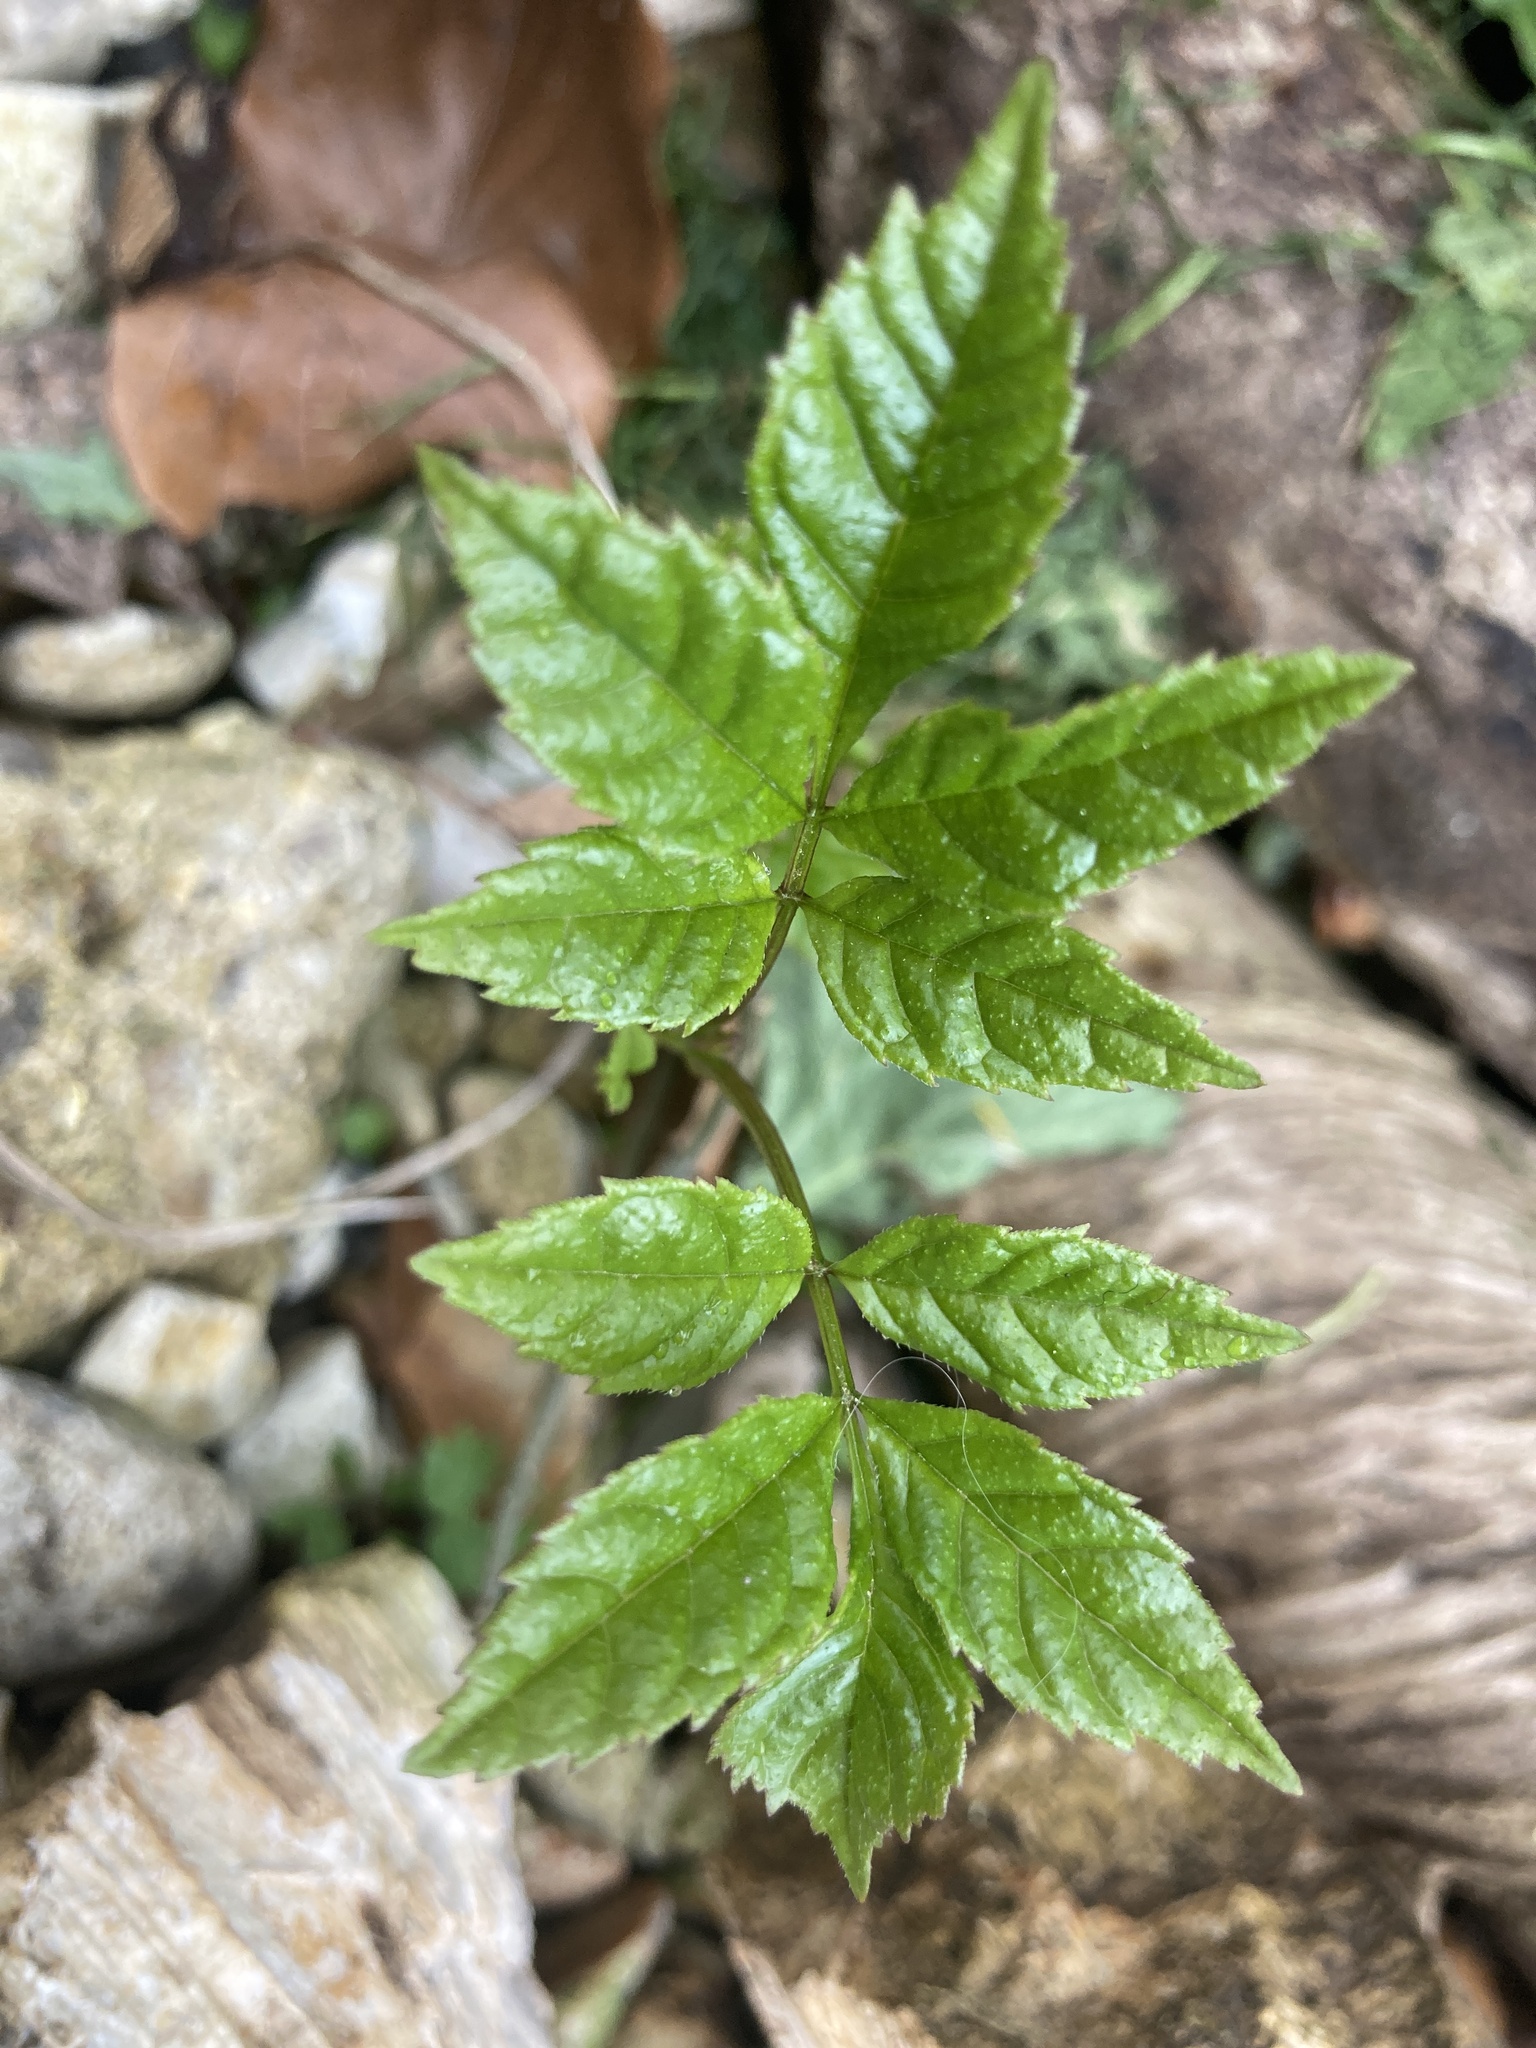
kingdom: Plantae
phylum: Tracheophyta
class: Magnoliopsida
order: Lamiales
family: Oleaceae
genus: Fraxinus
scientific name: Fraxinus excelsior
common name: European ash
